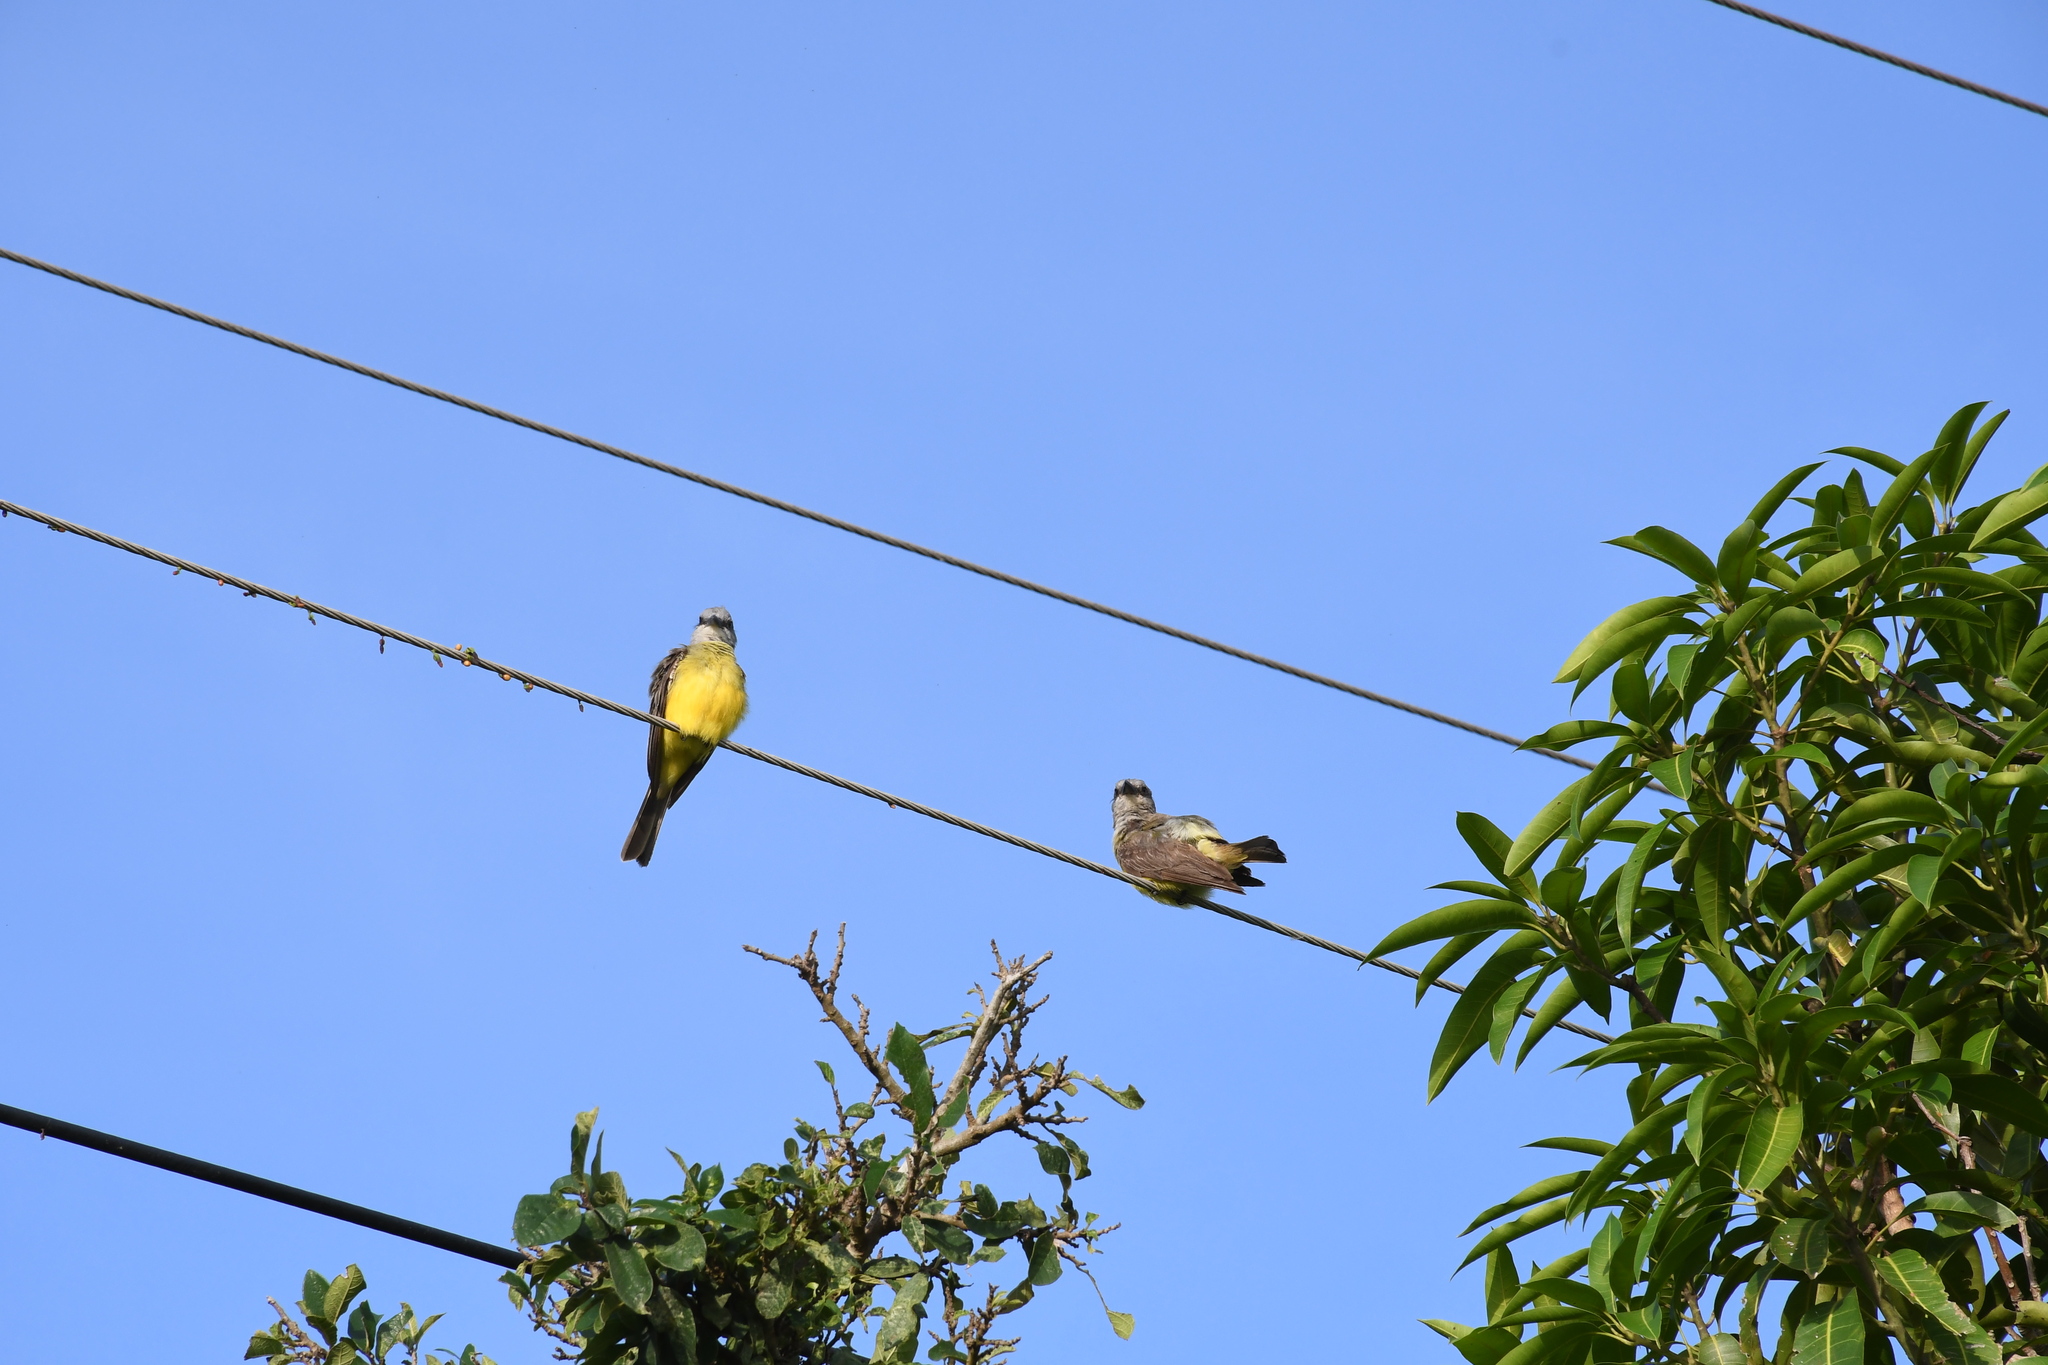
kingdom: Animalia
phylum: Chordata
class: Aves
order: Passeriformes
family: Tyrannidae
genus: Tyrannus
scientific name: Tyrannus melancholicus
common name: Tropical kingbird
